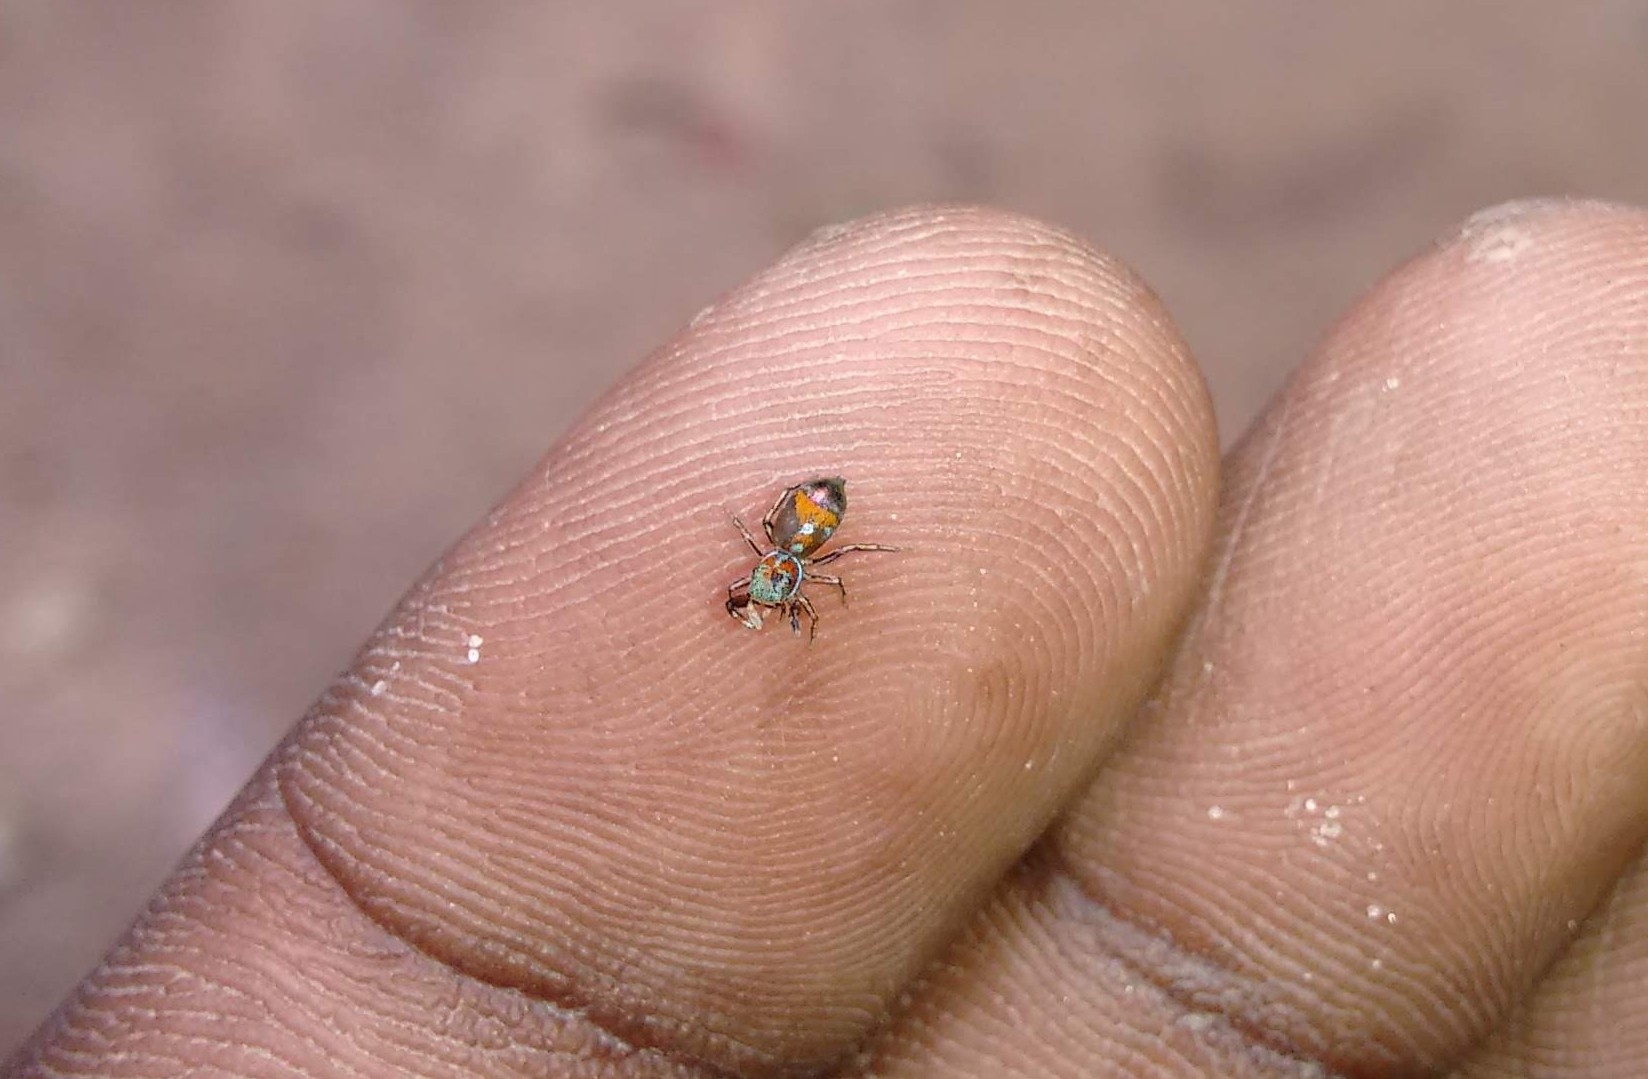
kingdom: Animalia
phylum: Arthropoda
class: Arachnida
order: Araneae
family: Salticidae
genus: Siler
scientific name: Siler semiglaucus
